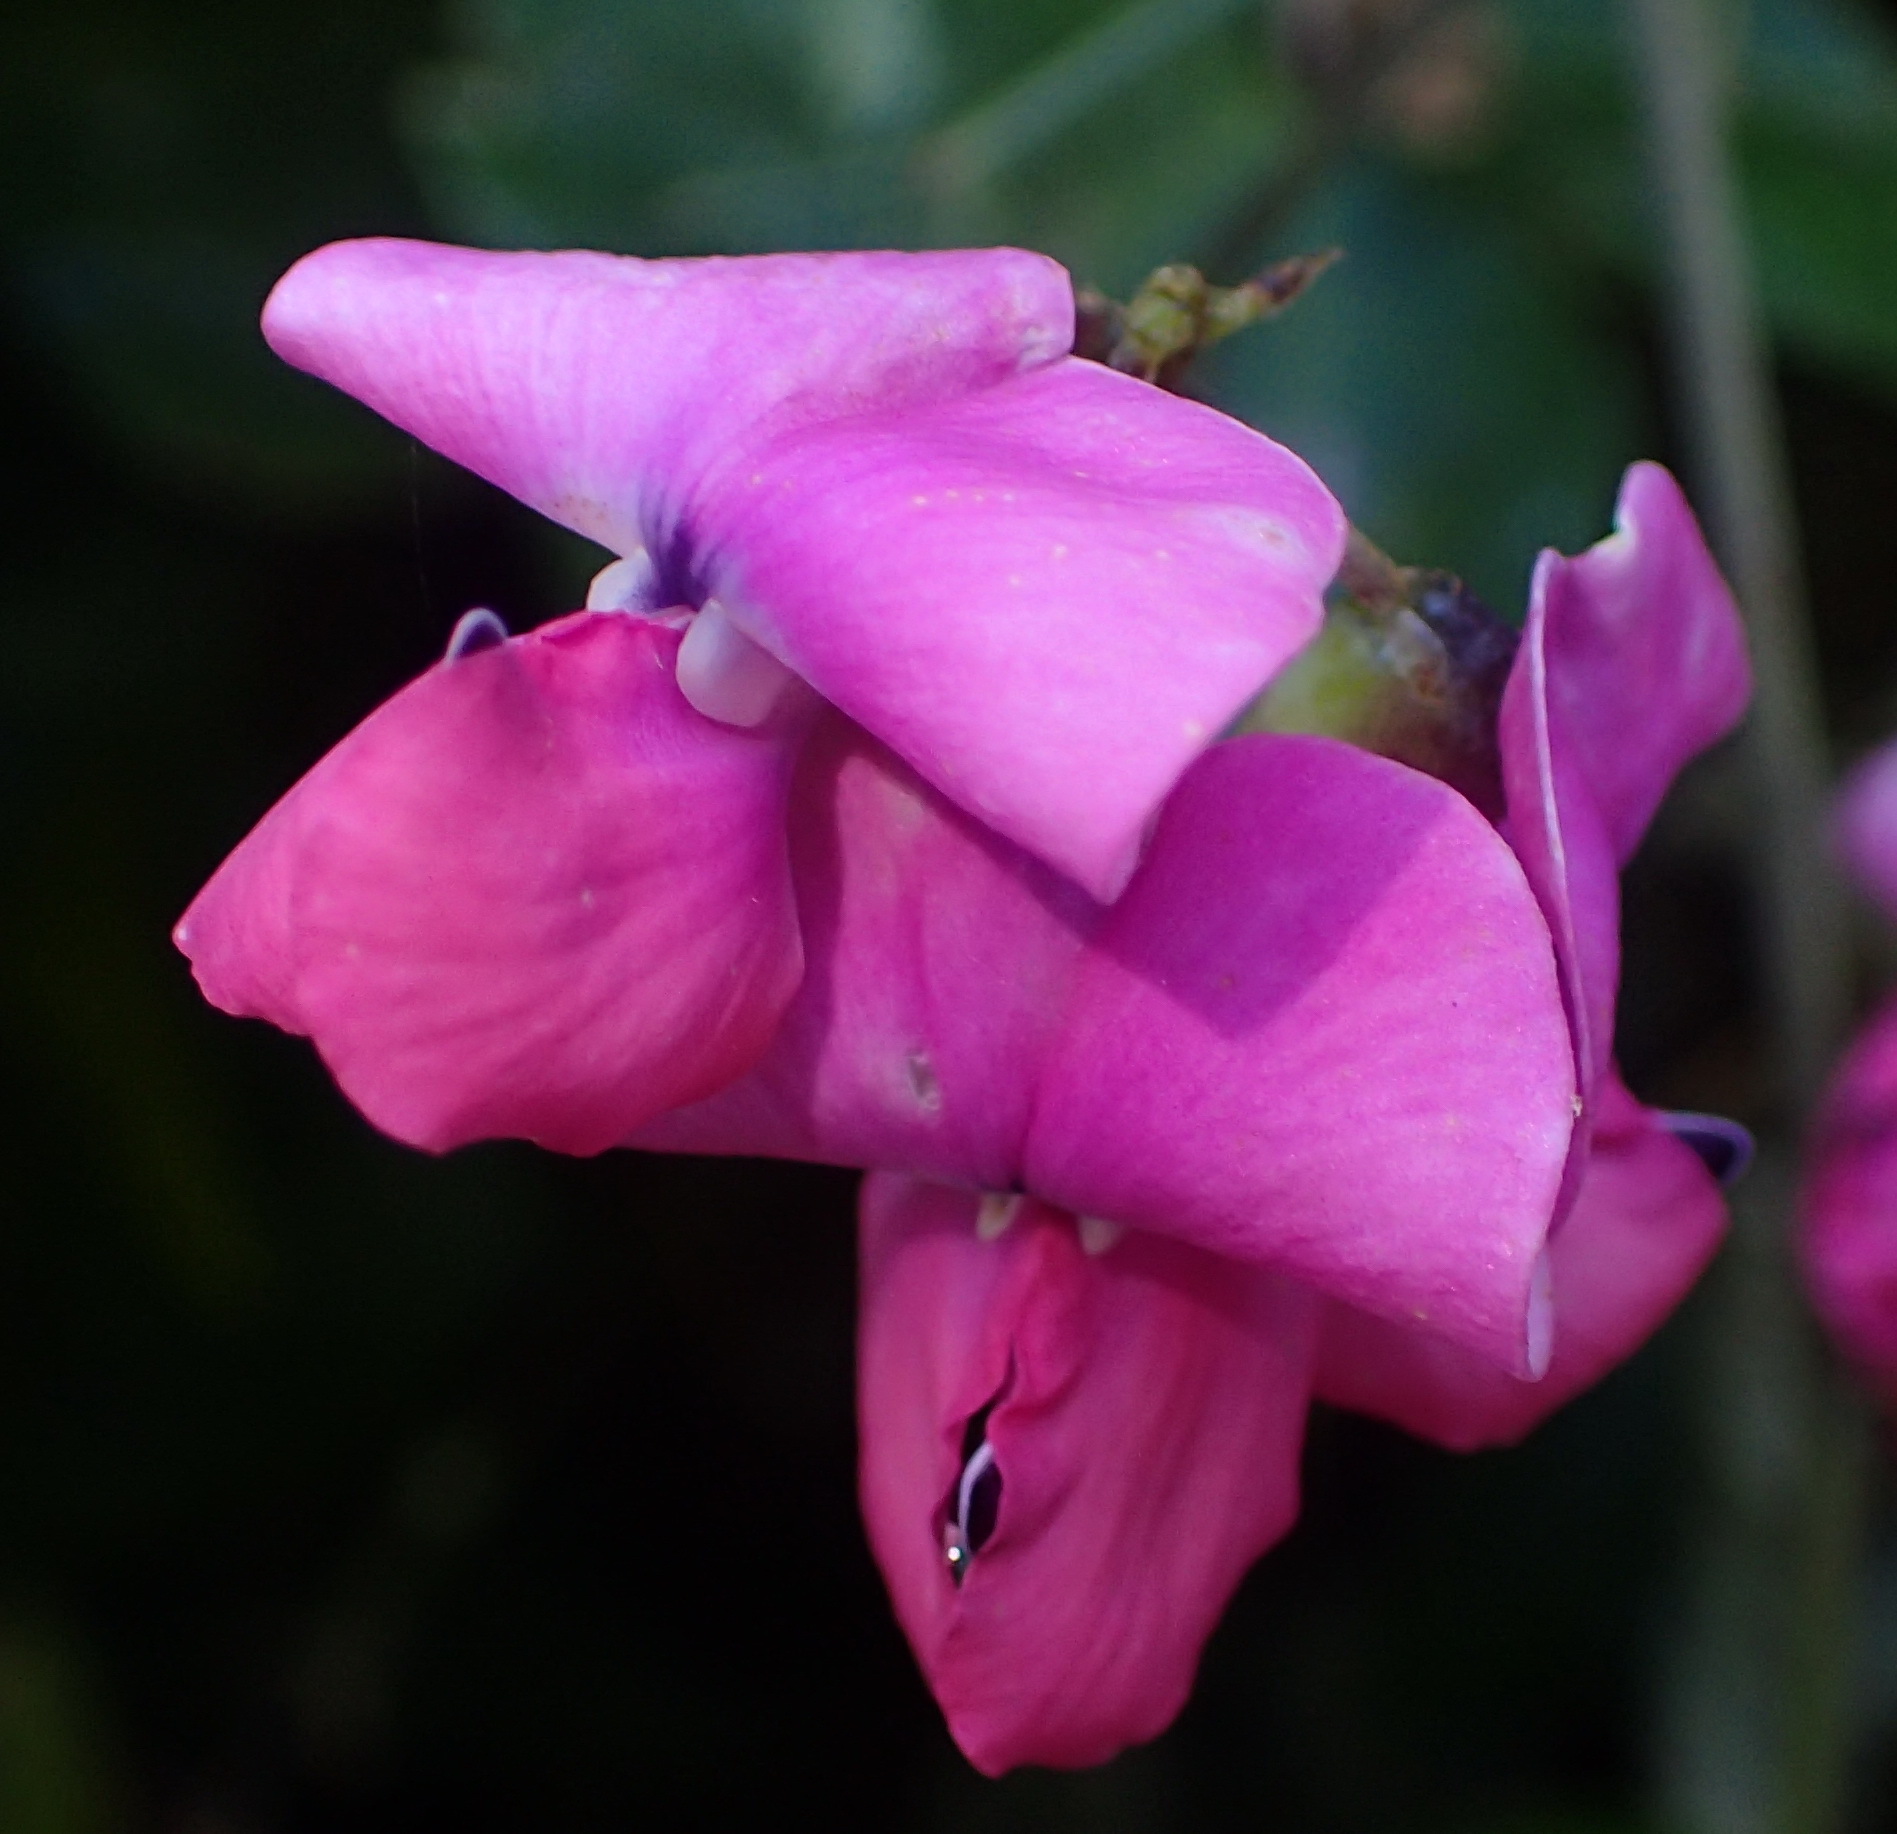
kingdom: Plantae
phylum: Tracheophyta
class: Magnoliopsida
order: Fabales
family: Fabaceae
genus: Dipogon
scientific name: Dipogon lignosus
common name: Okie bean
